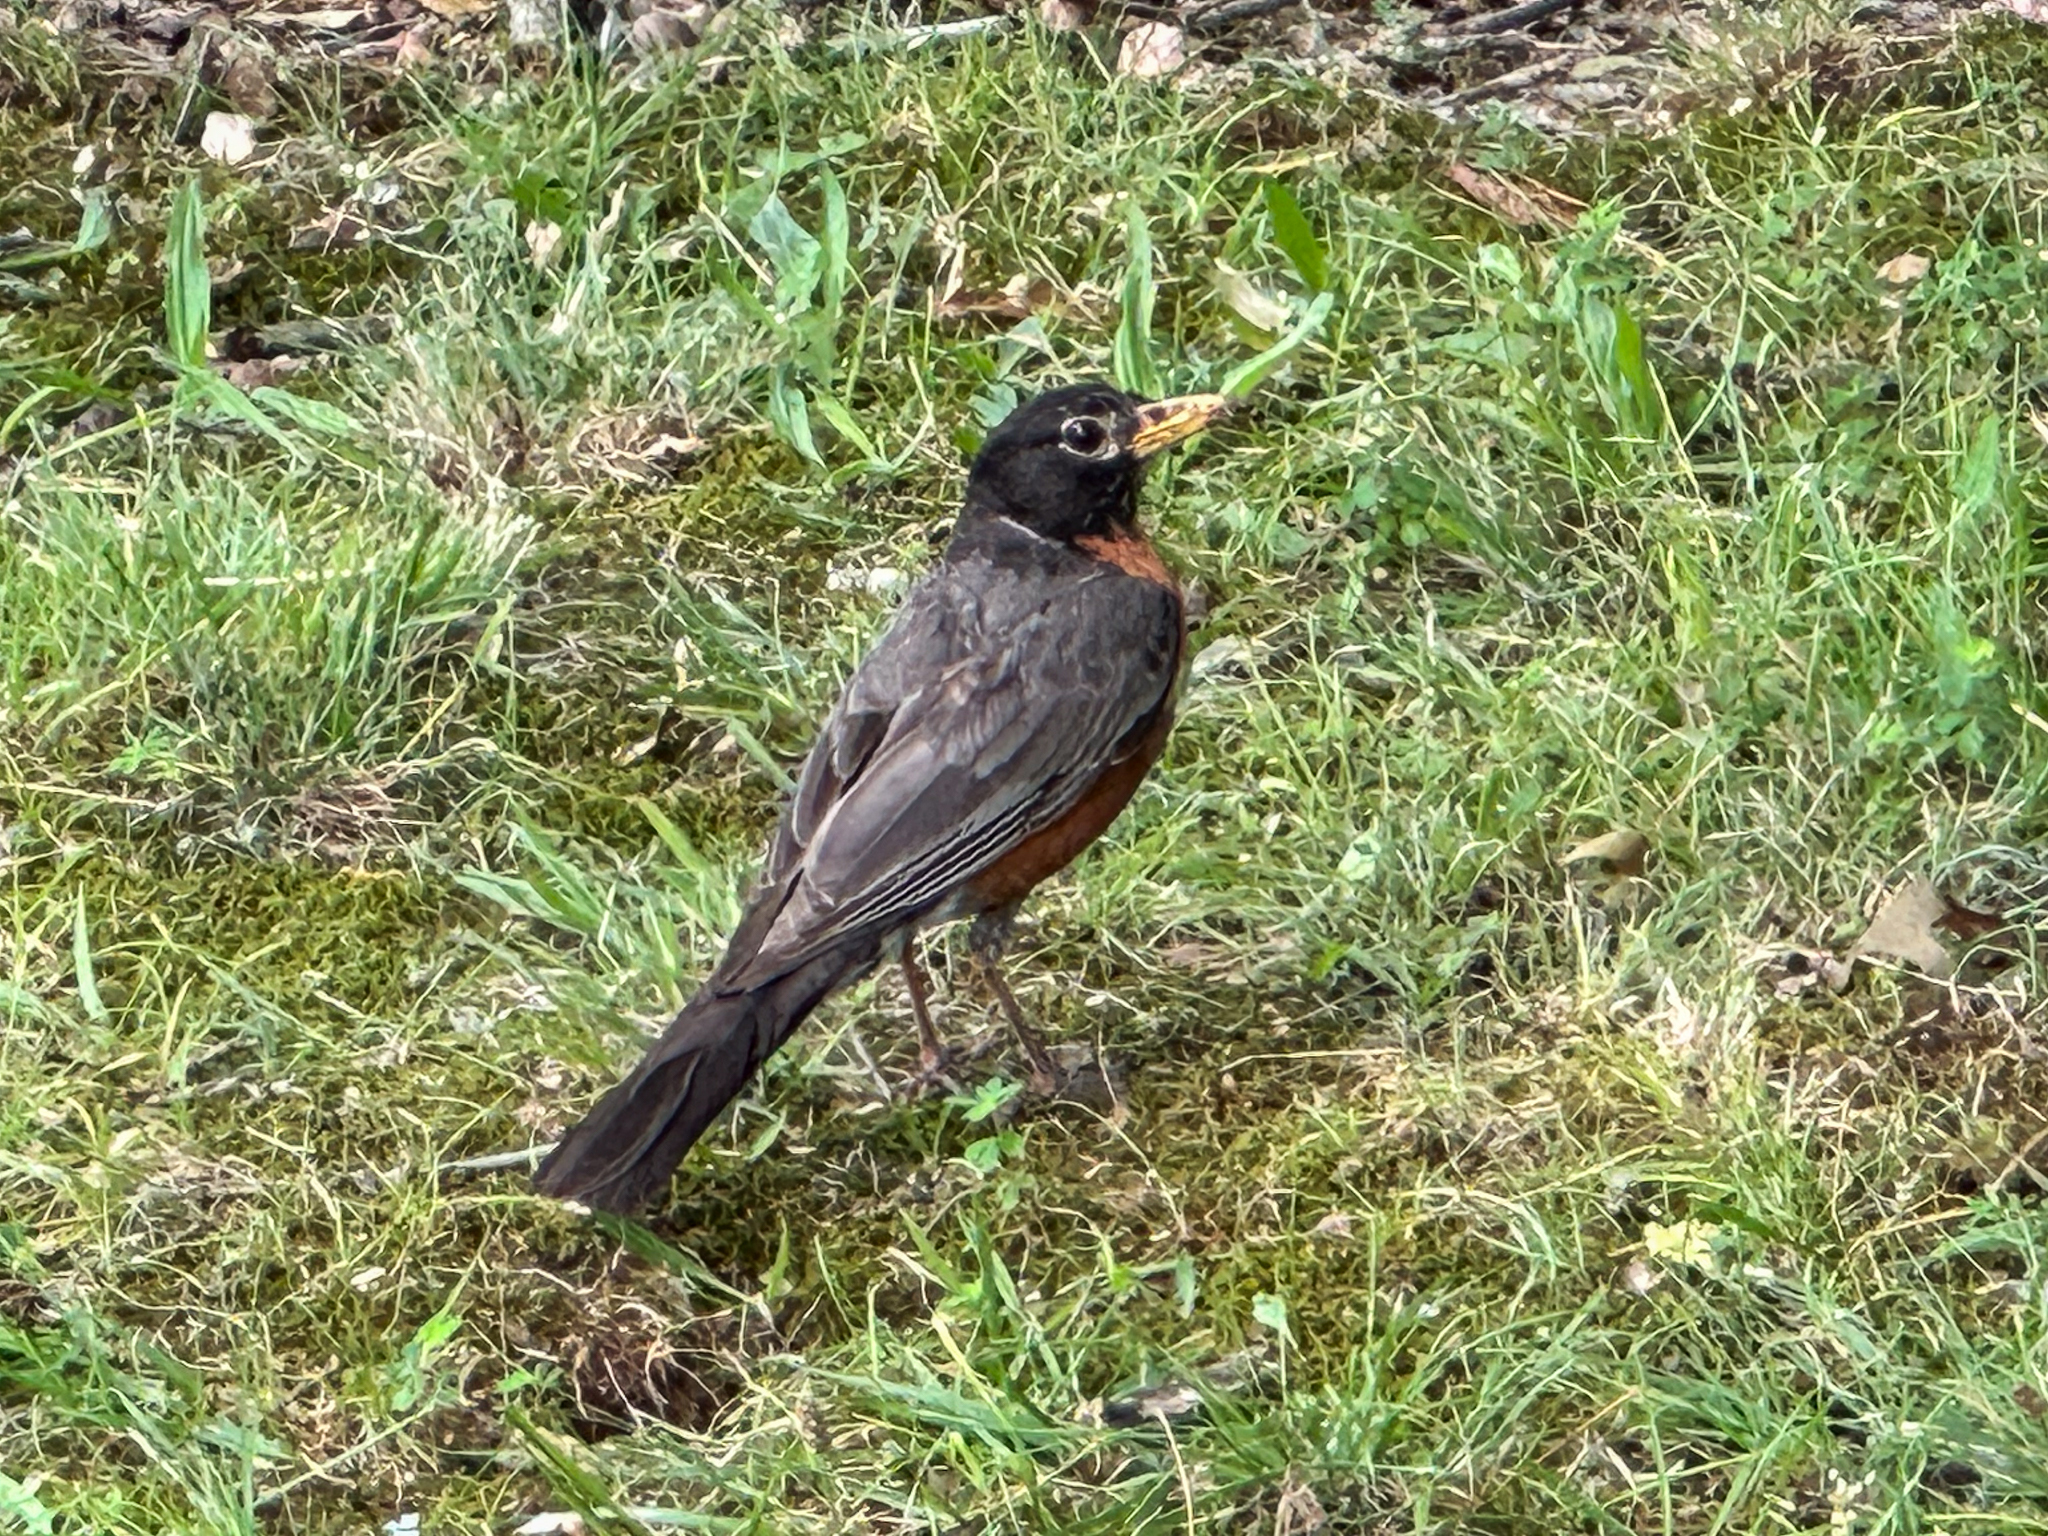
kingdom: Animalia
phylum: Chordata
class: Aves
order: Passeriformes
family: Turdidae
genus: Turdus
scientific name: Turdus migratorius
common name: American robin
